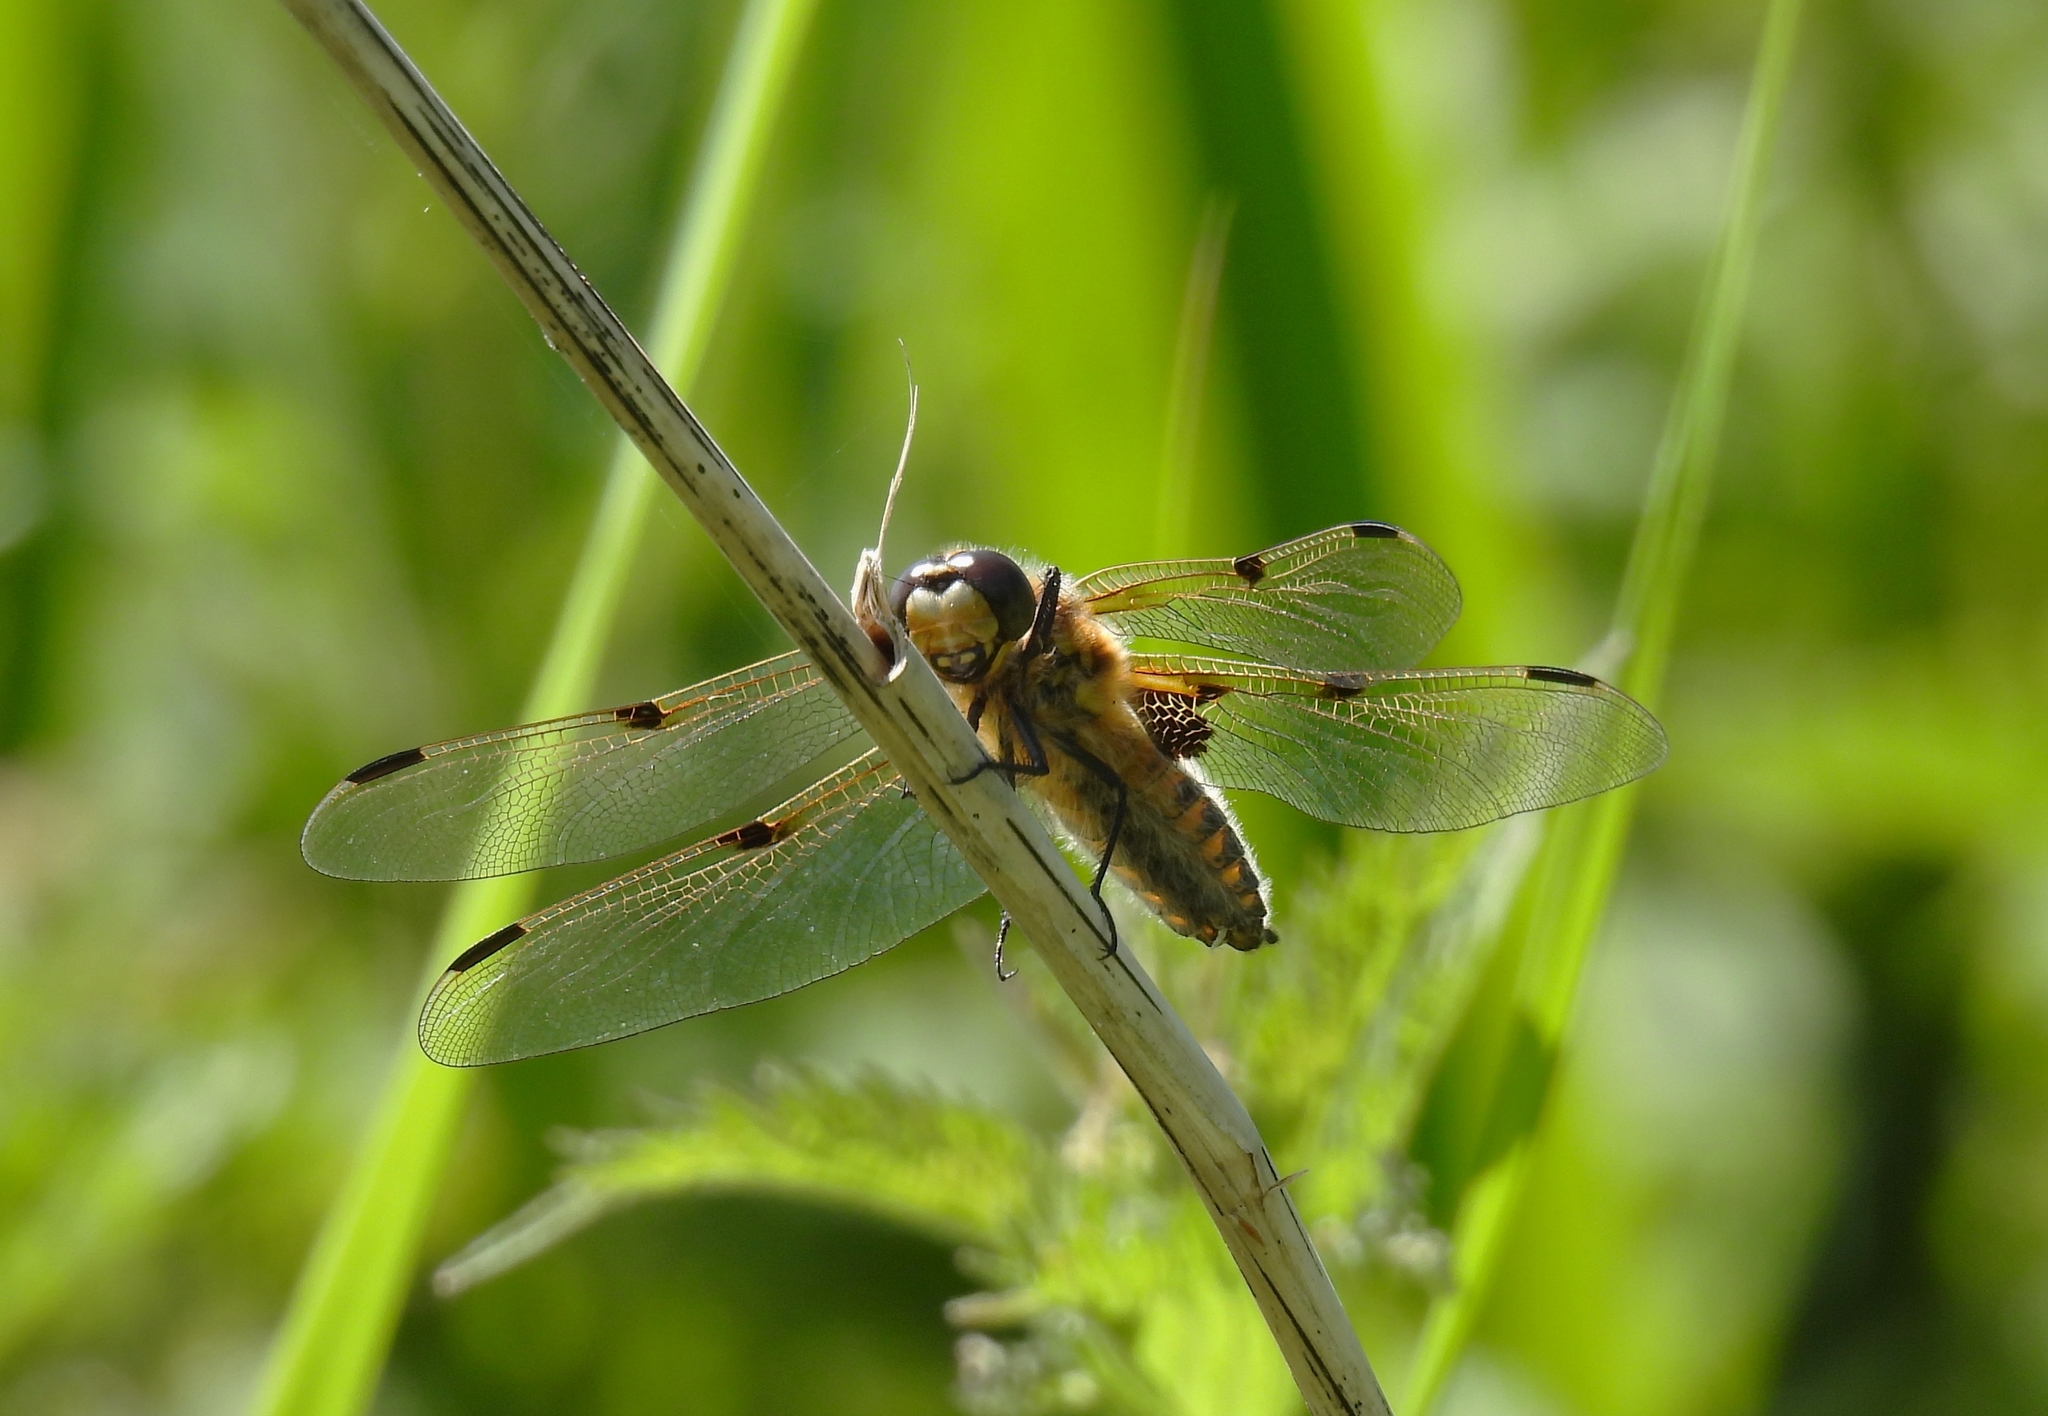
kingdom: Animalia
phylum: Arthropoda
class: Insecta
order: Odonata
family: Libellulidae
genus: Libellula
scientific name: Libellula quadrimaculata
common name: Four-spotted chaser
